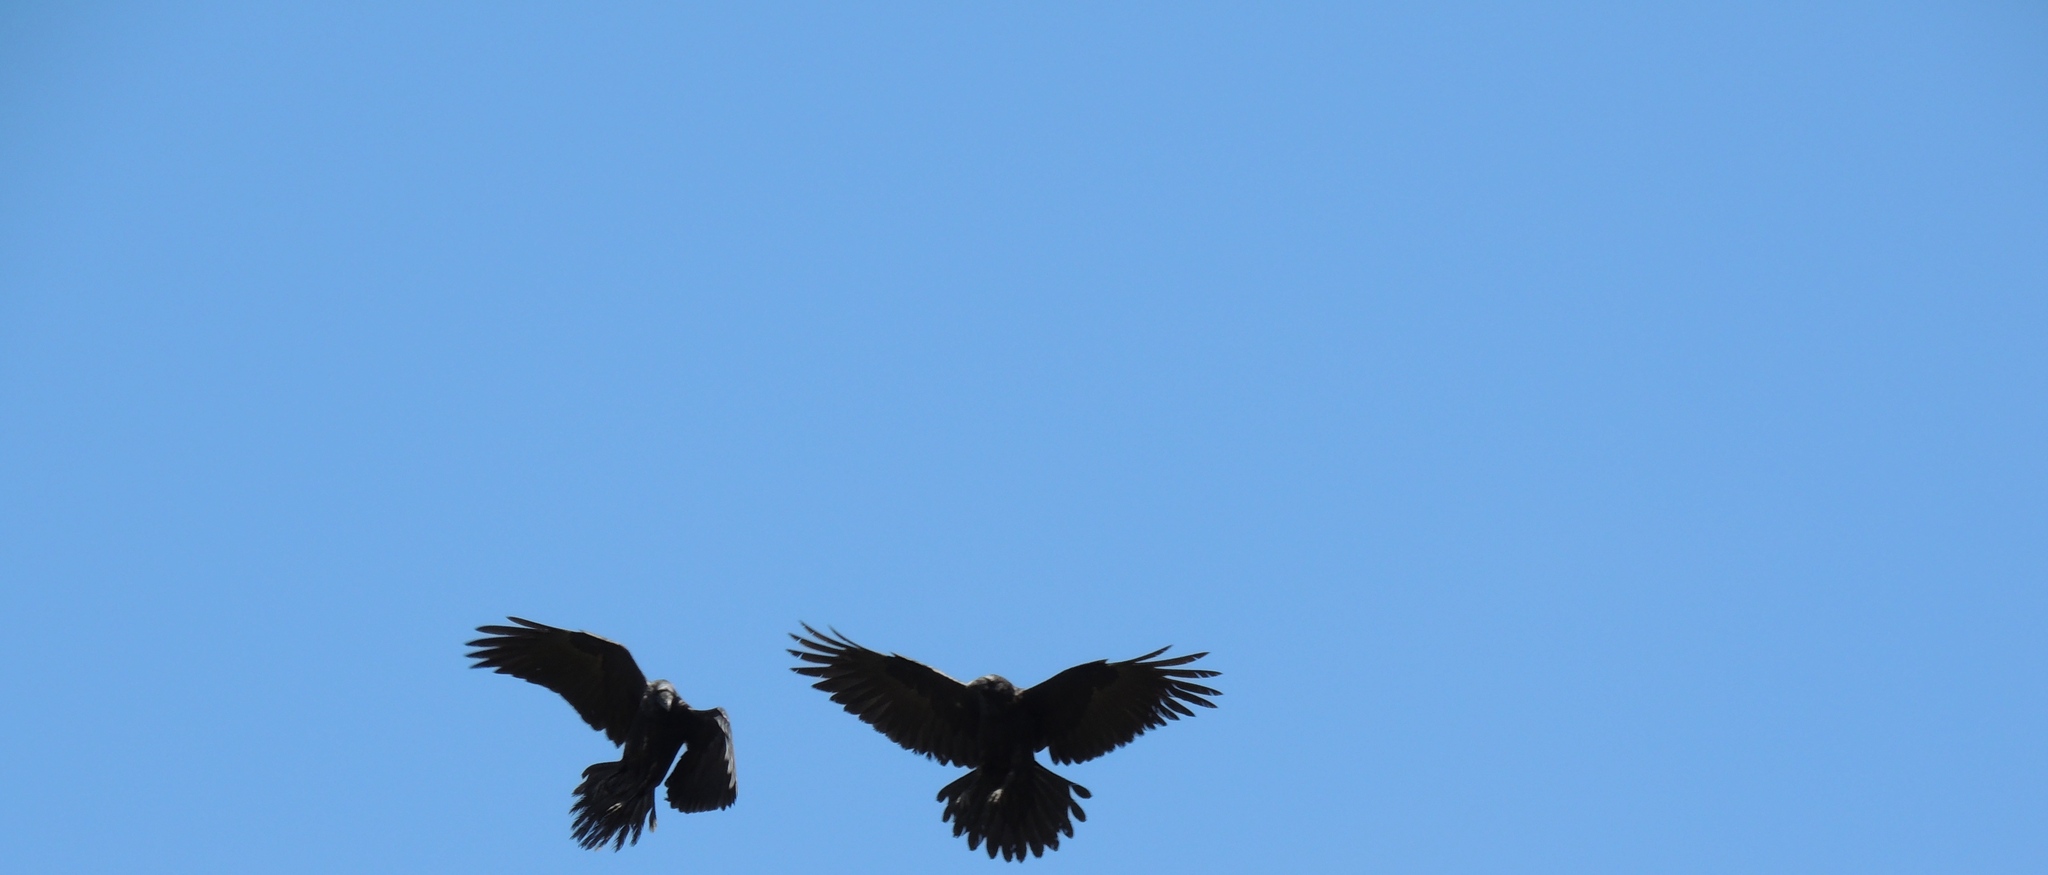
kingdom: Animalia
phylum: Chordata
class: Aves
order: Passeriformes
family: Corvidae
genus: Corvus
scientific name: Corvus corax
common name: Common raven
